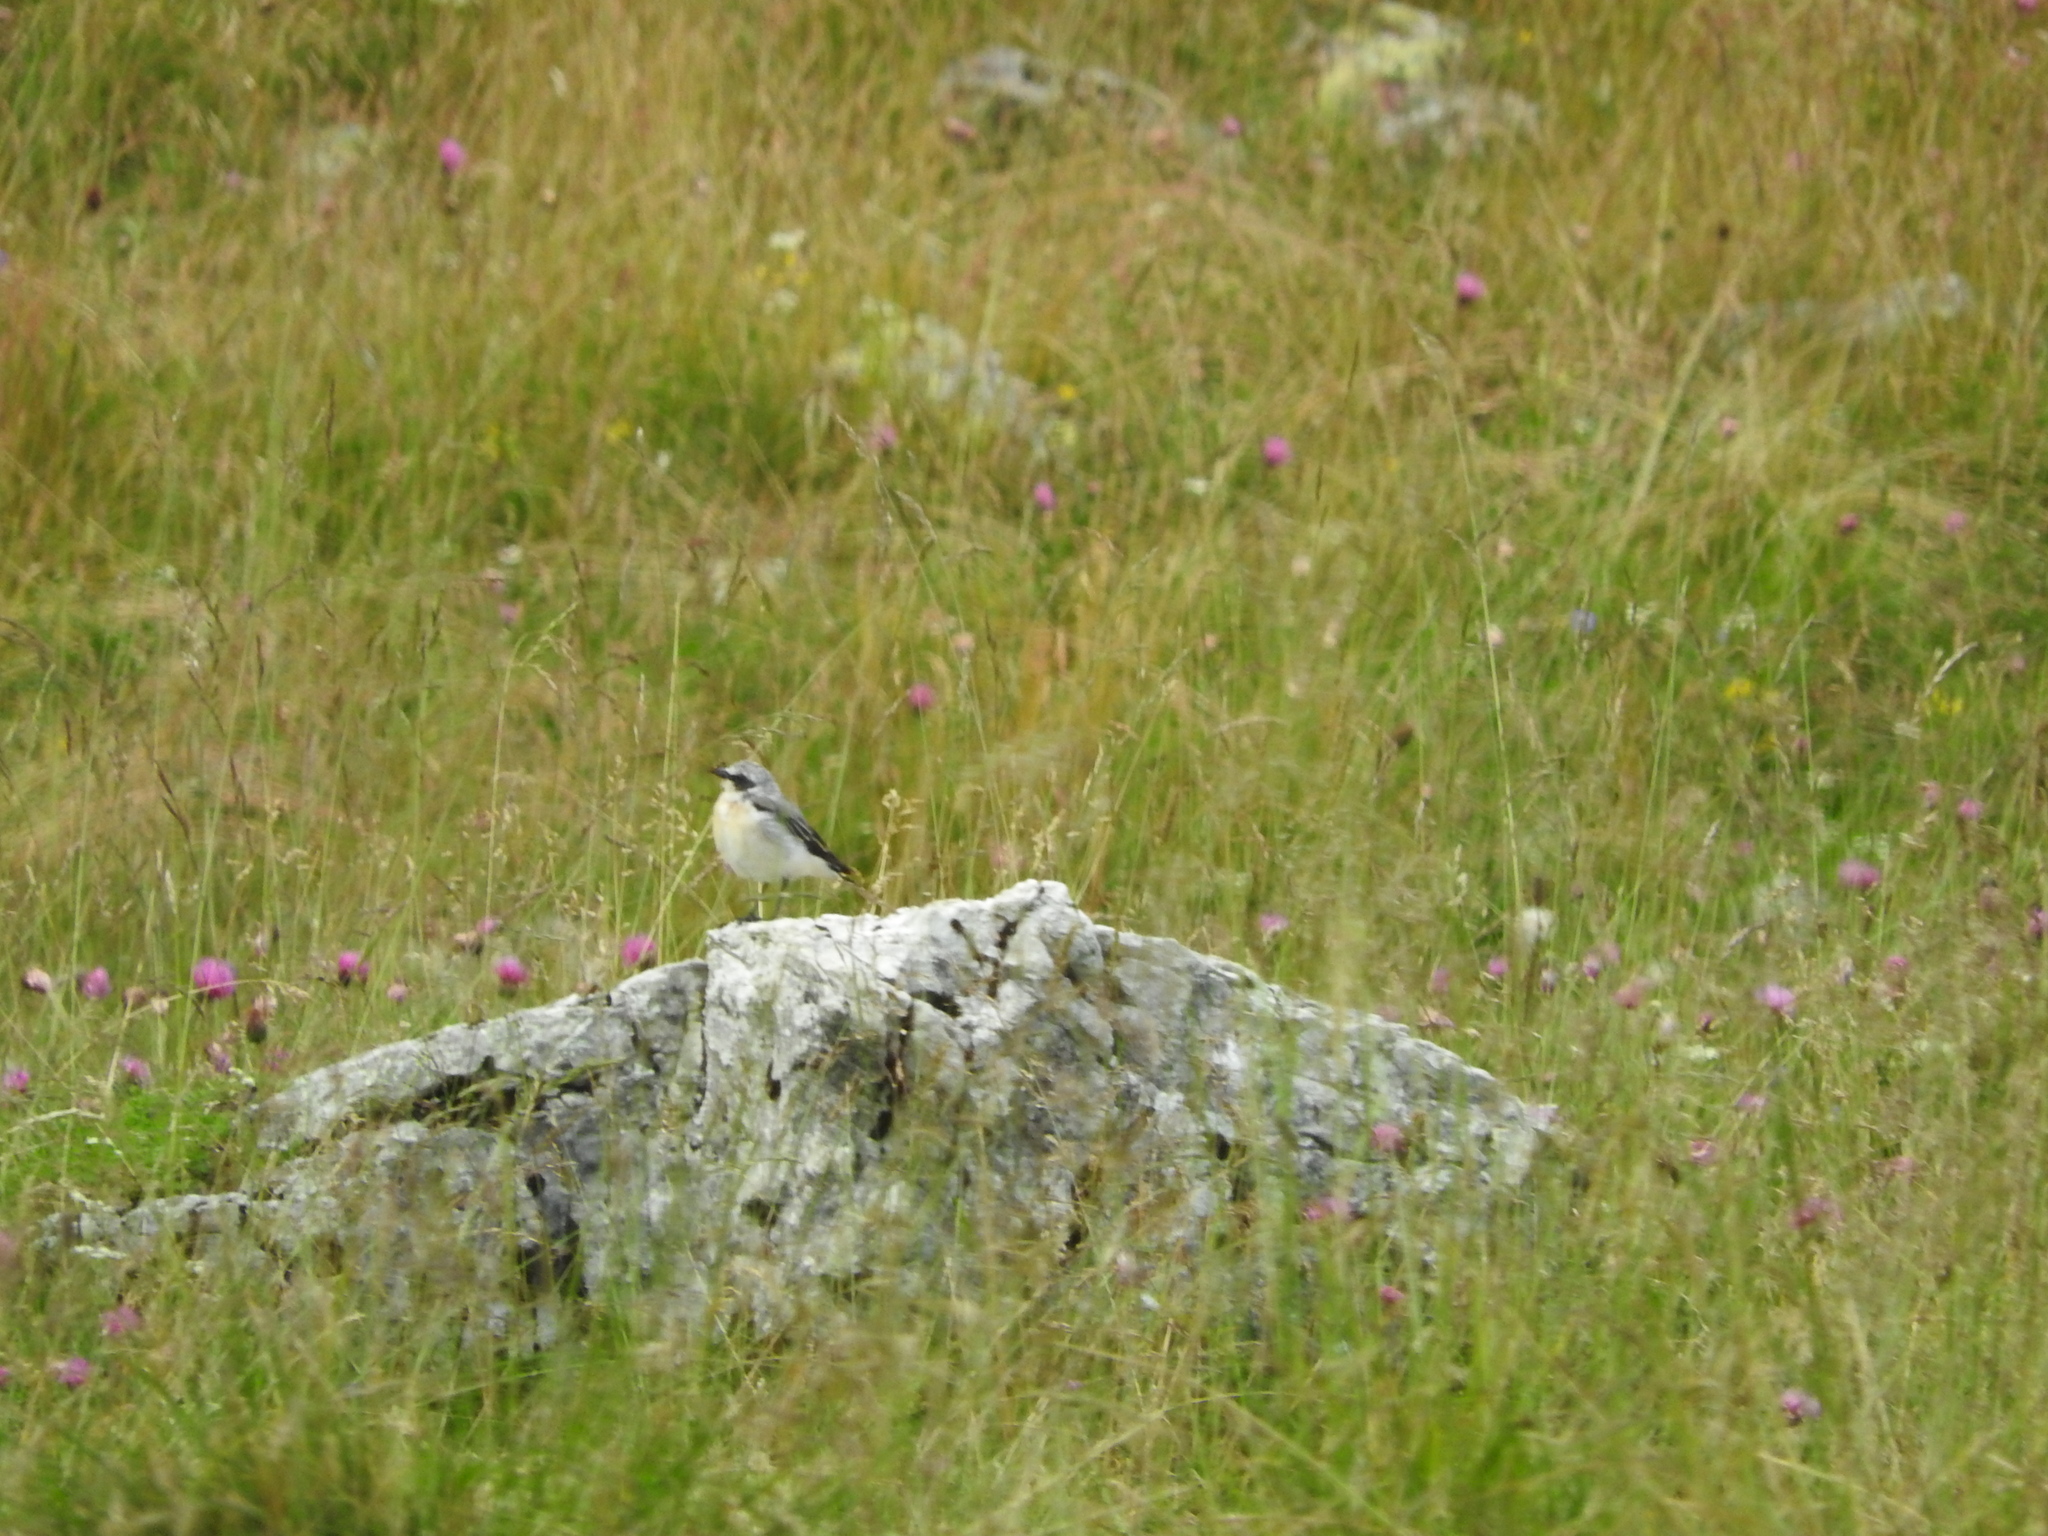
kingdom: Animalia
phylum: Chordata
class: Aves
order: Passeriformes
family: Muscicapidae
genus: Oenanthe
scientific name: Oenanthe oenanthe
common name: Northern wheatear
